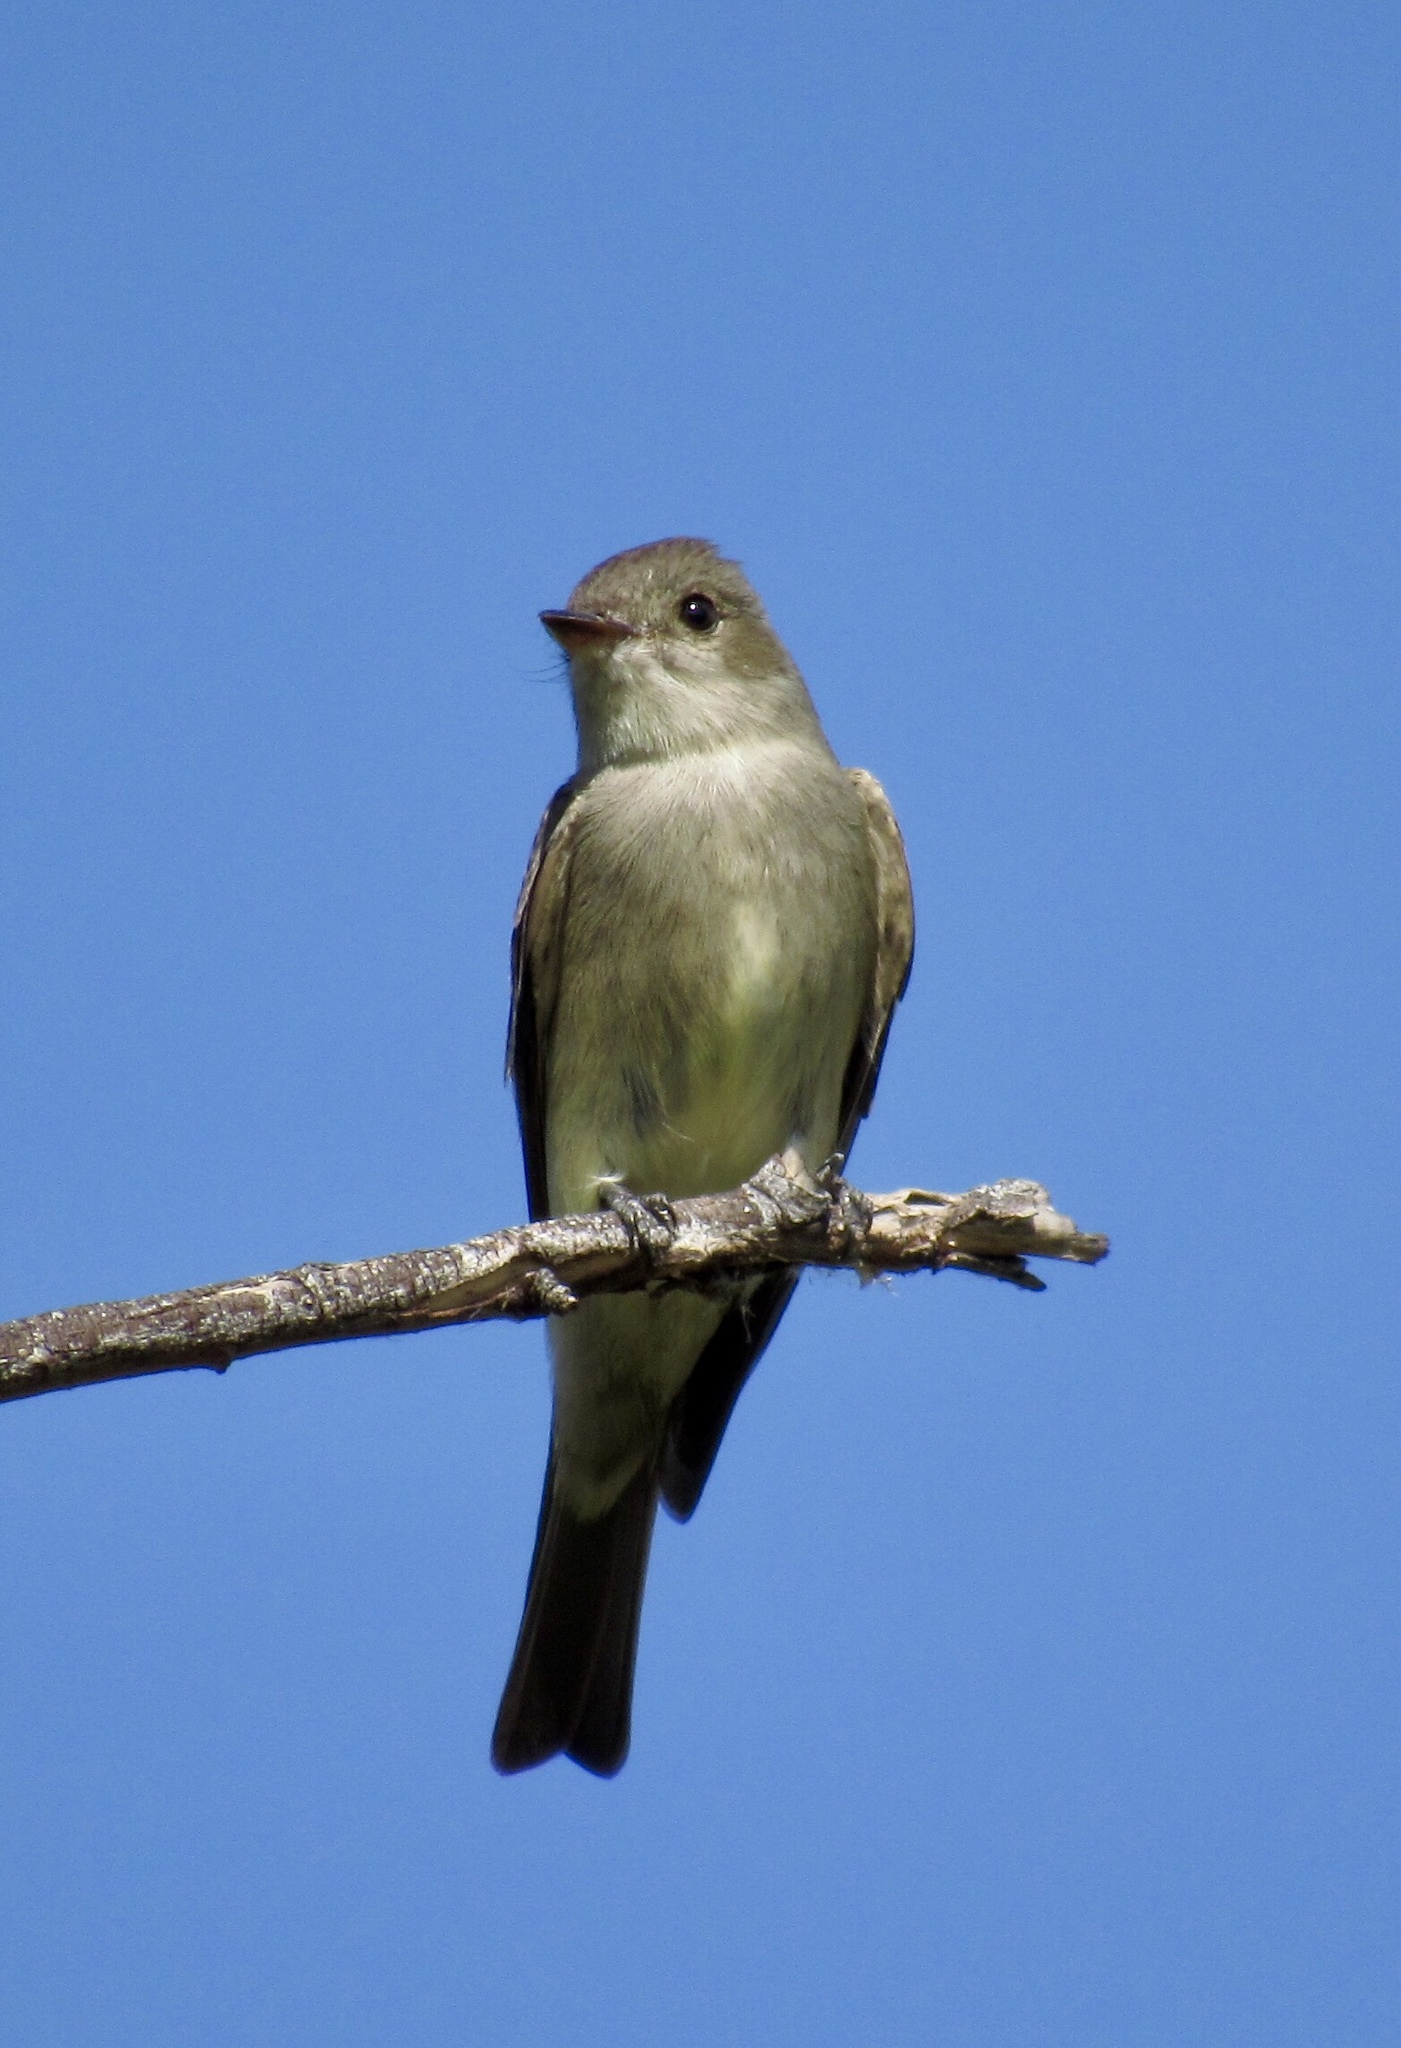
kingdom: Animalia
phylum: Chordata
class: Aves
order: Passeriformes
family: Tyrannidae
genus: Contopus
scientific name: Contopus sordidulus
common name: Western wood-pewee
